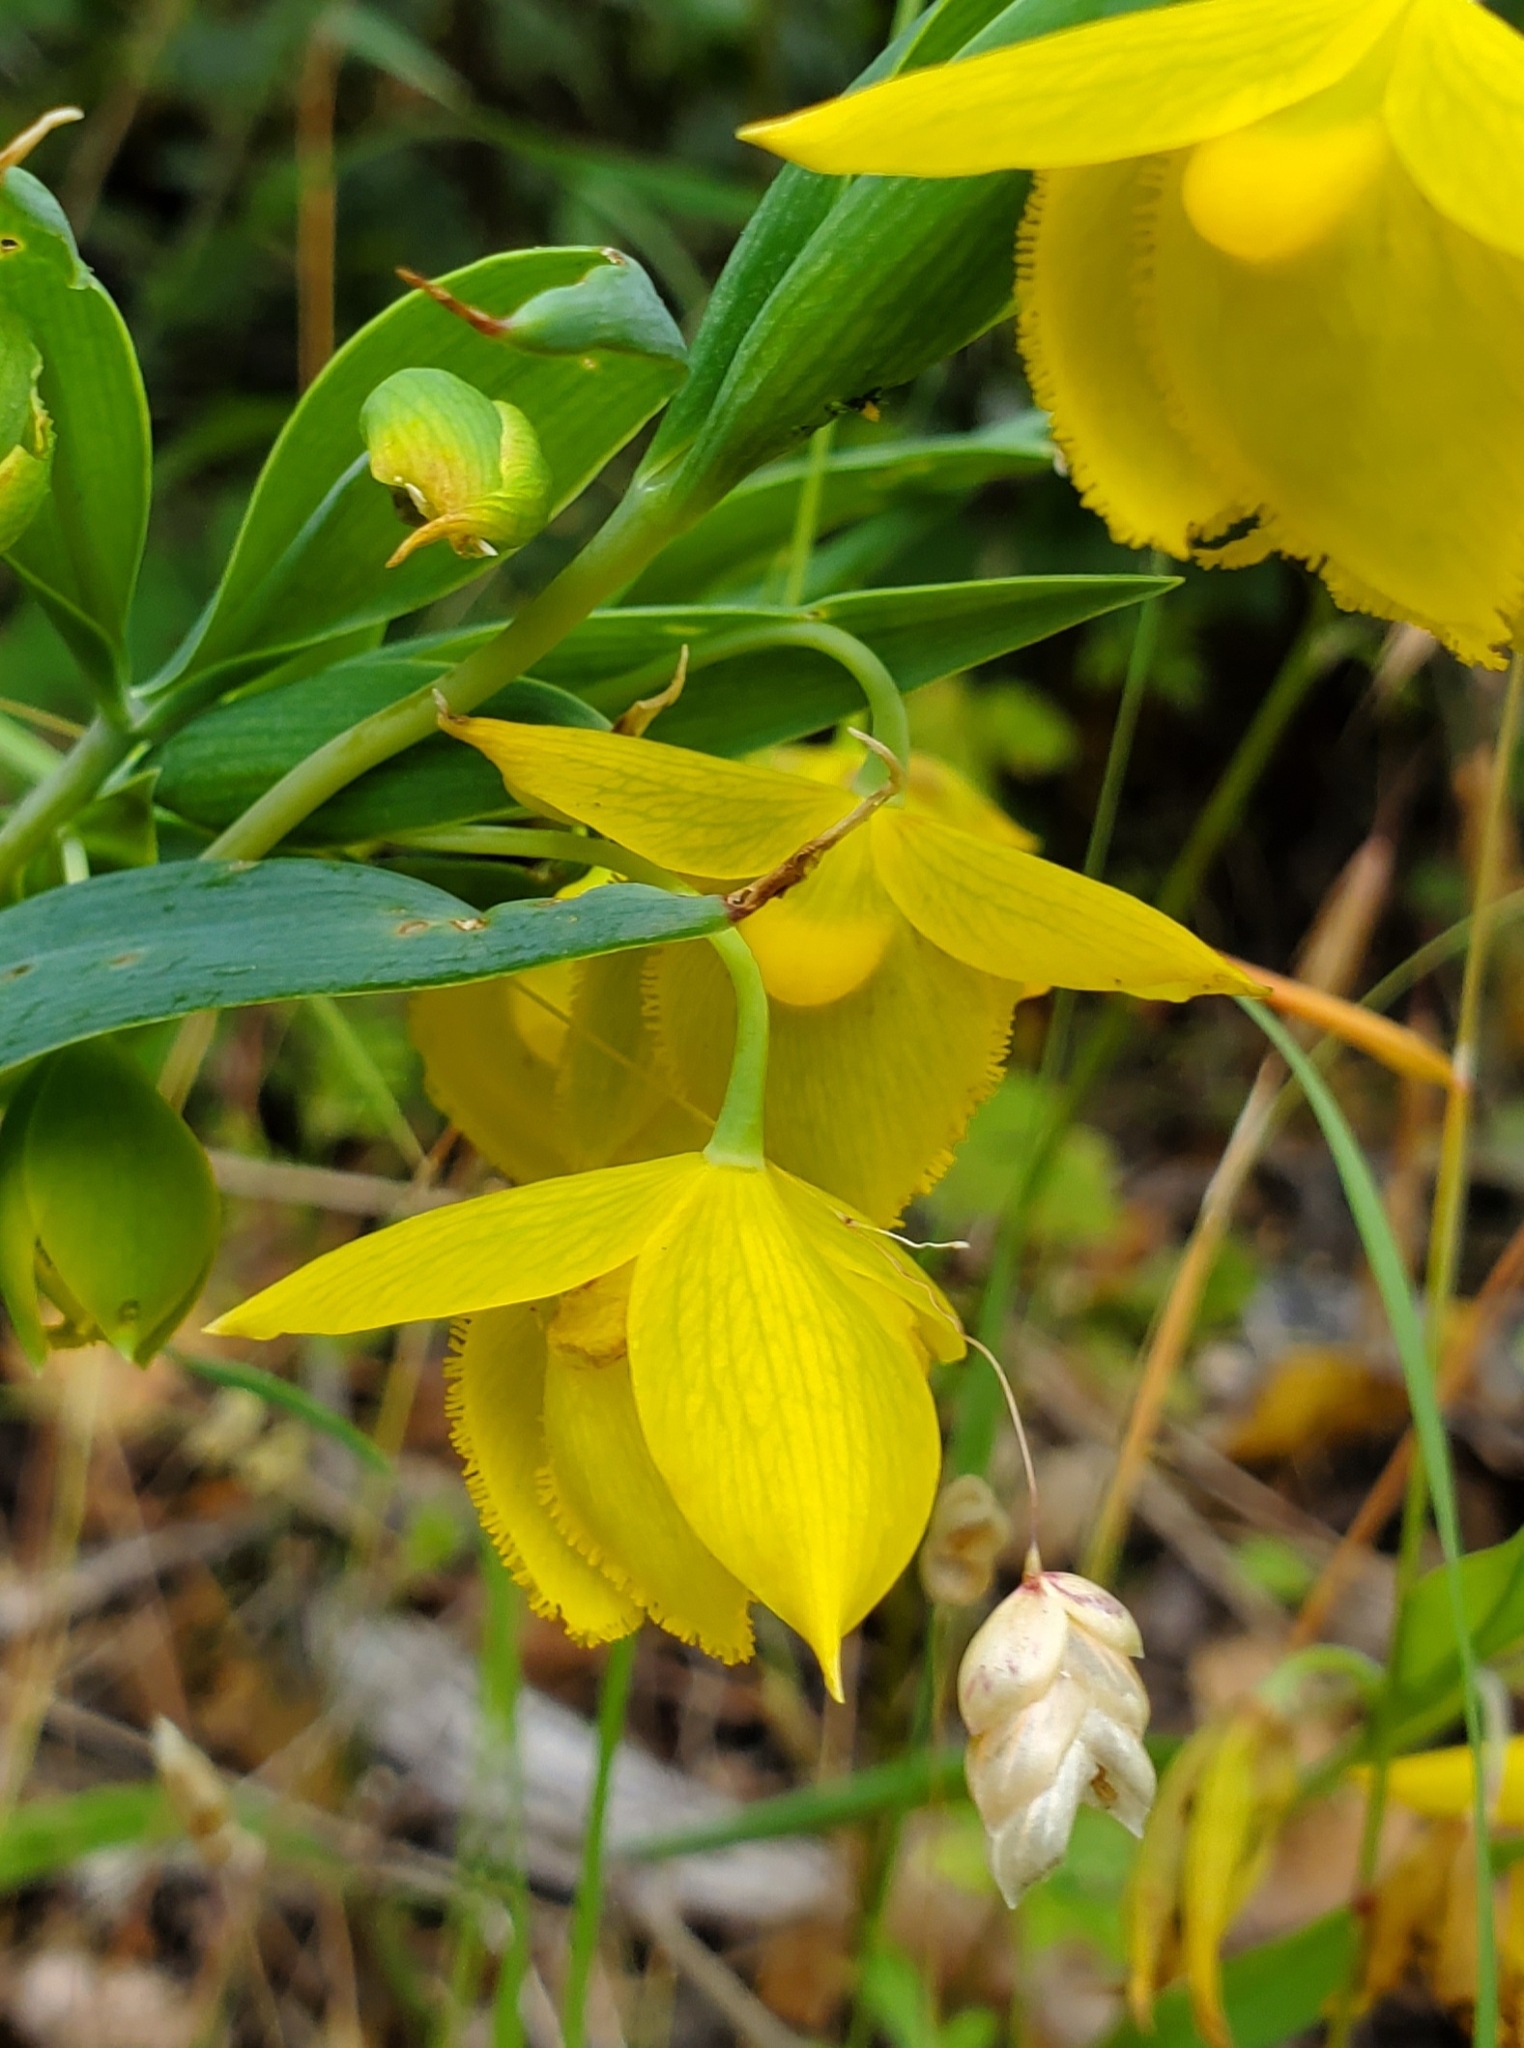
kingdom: Plantae
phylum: Tracheophyta
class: Liliopsida
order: Liliales
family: Liliaceae
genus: Calochortus
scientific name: Calochortus amabilis
